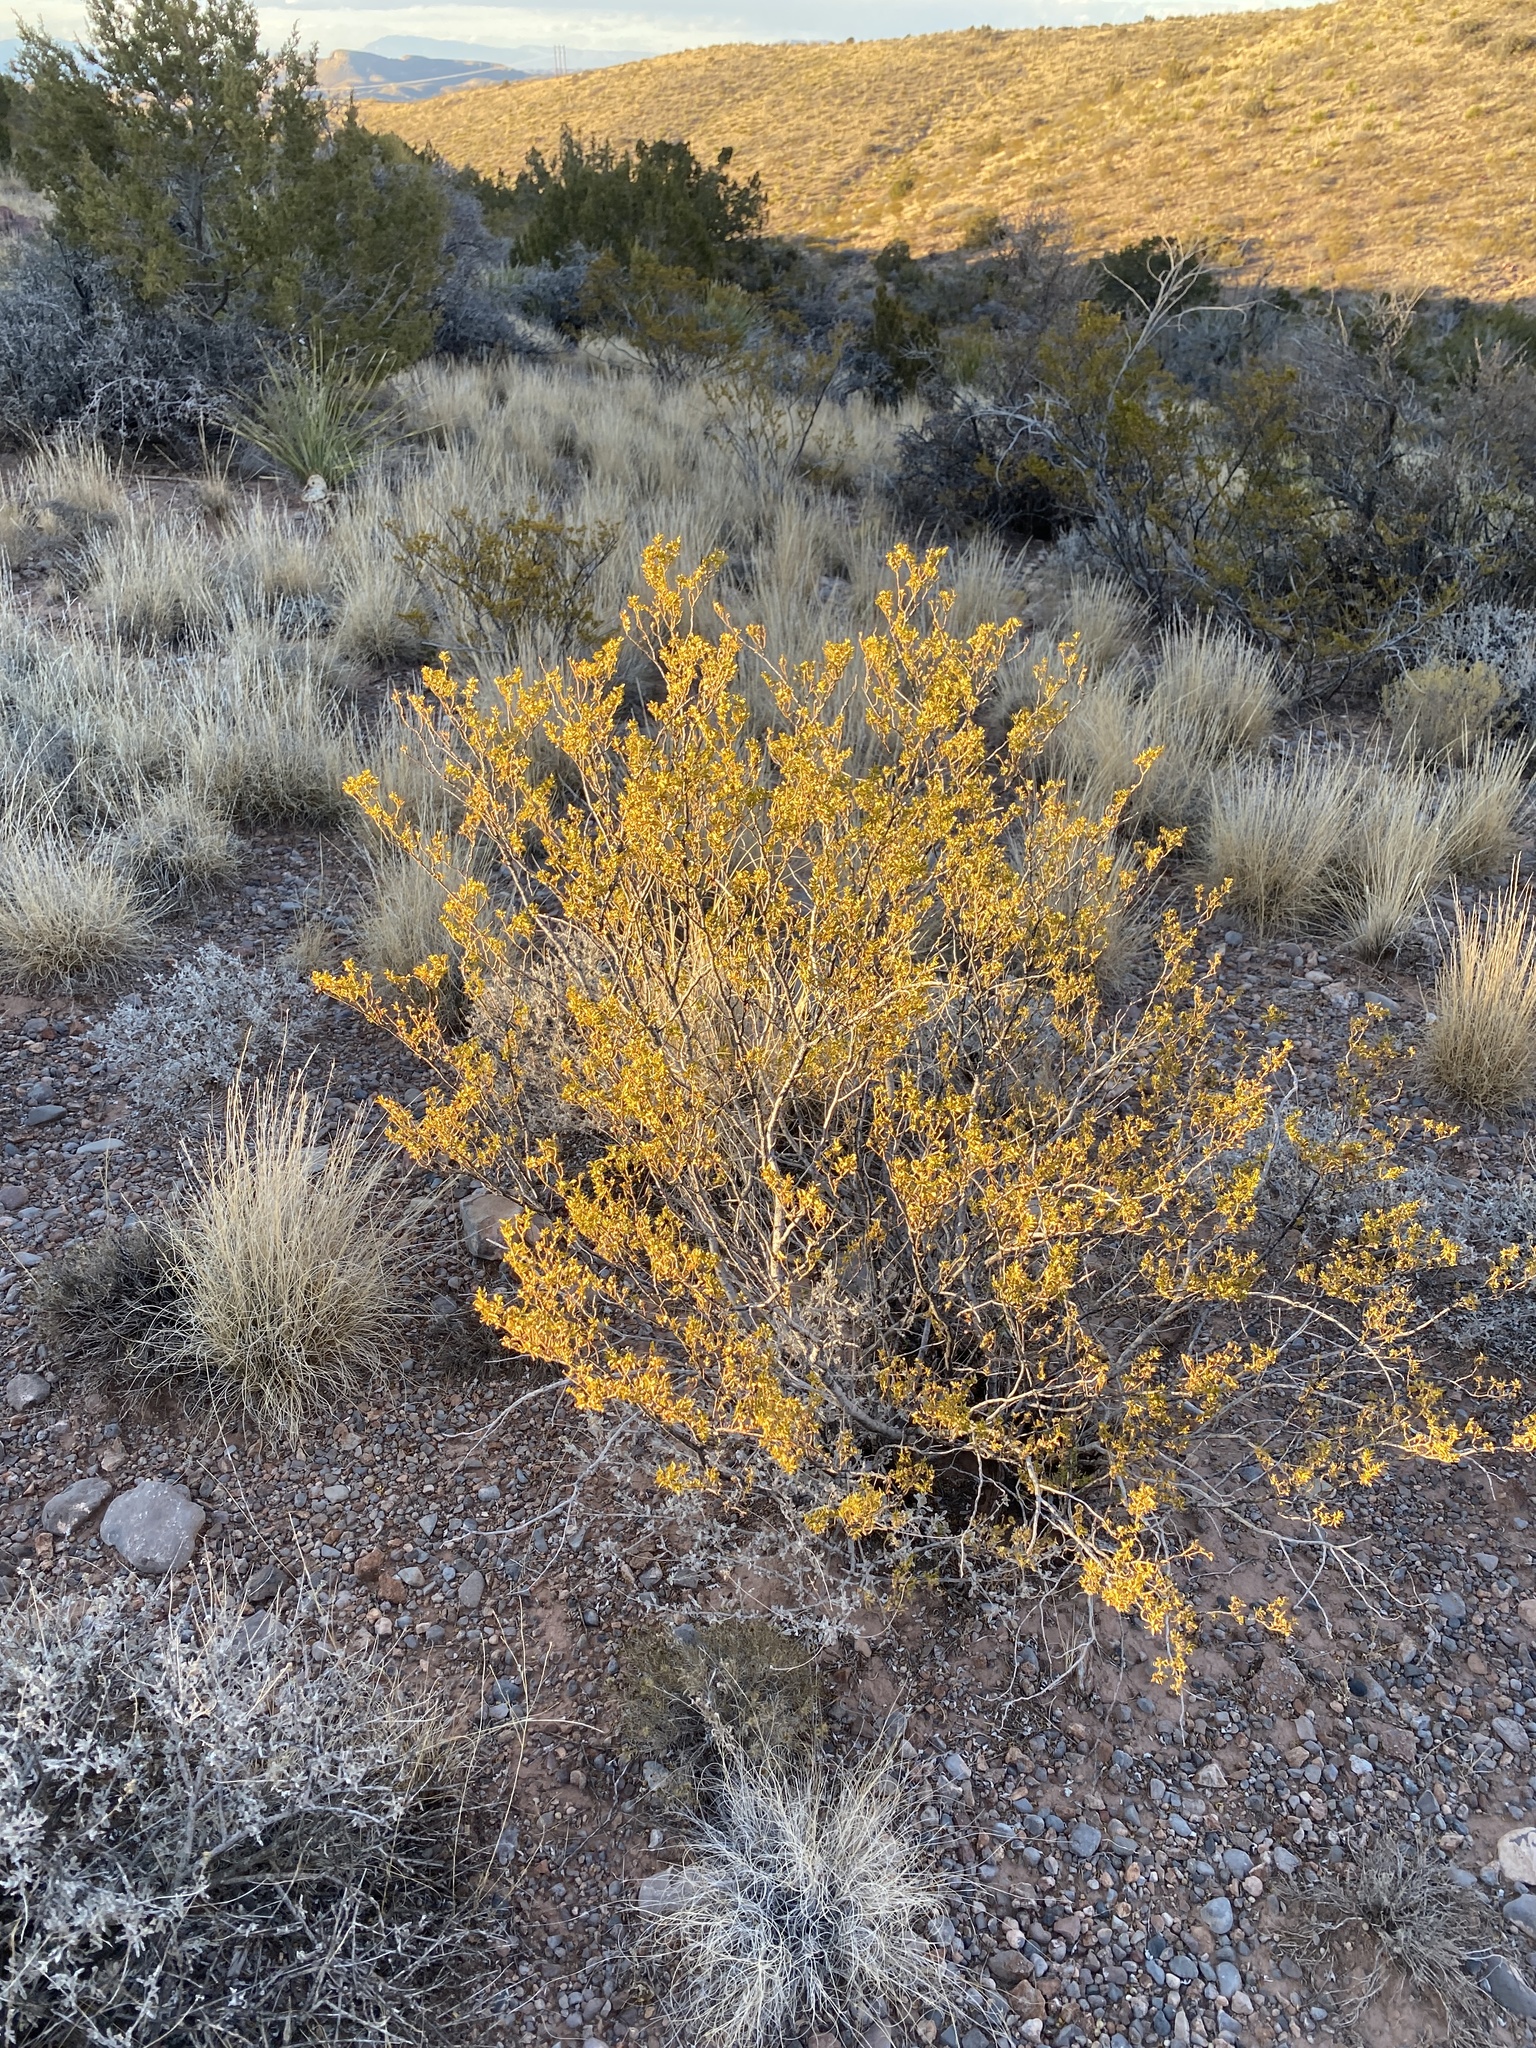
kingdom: Plantae
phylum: Tracheophyta
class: Magnoliopsida
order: Zygophyllales
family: Zygophyllaceae
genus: Larrea
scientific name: Larrea tridentata
